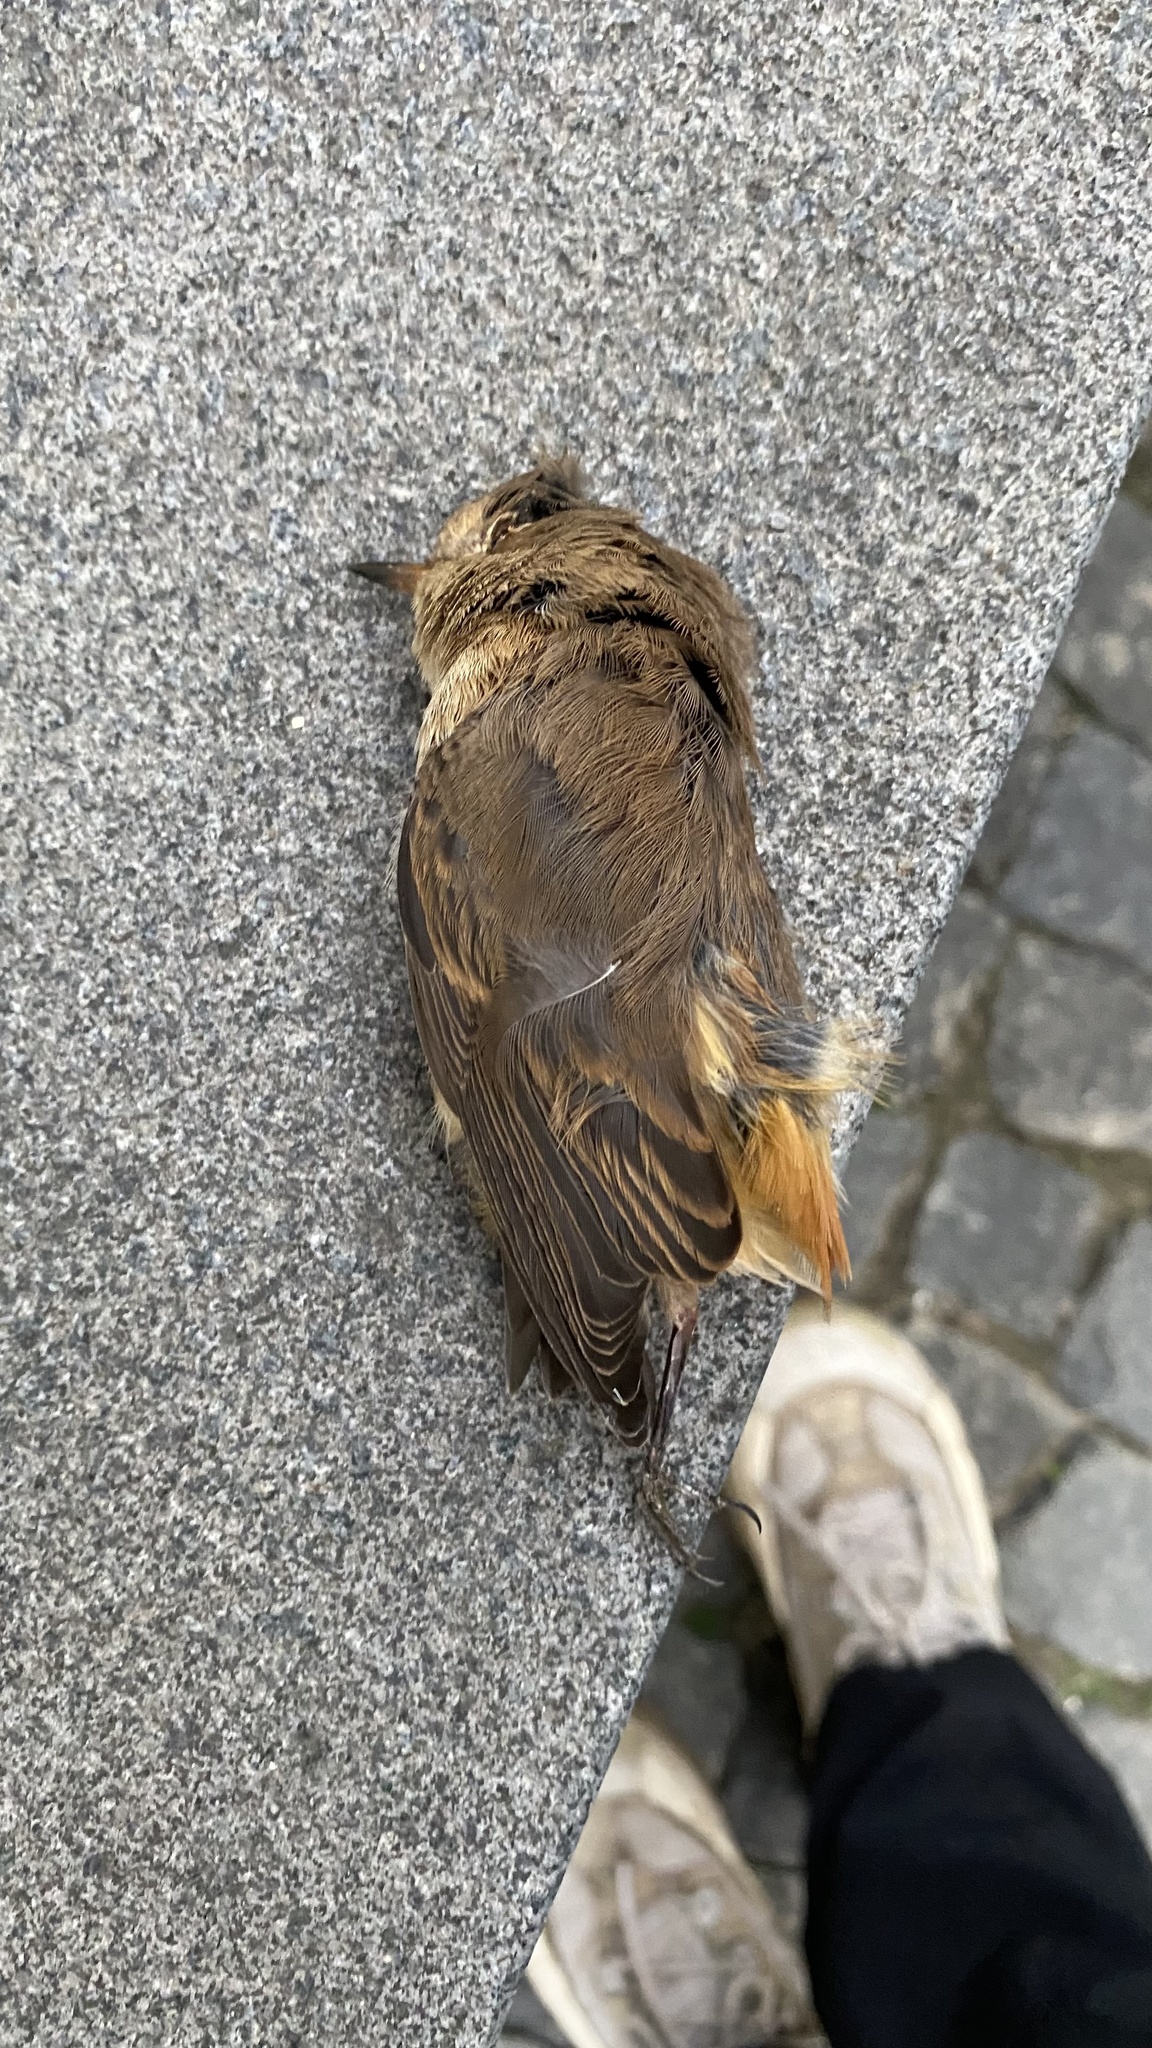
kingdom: Animalia
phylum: Chordata
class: Aves
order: Passeriformes
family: Muscicapidae
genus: Phoenicurus
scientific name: Phoenicurus phoenicurus
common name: Common redstart
